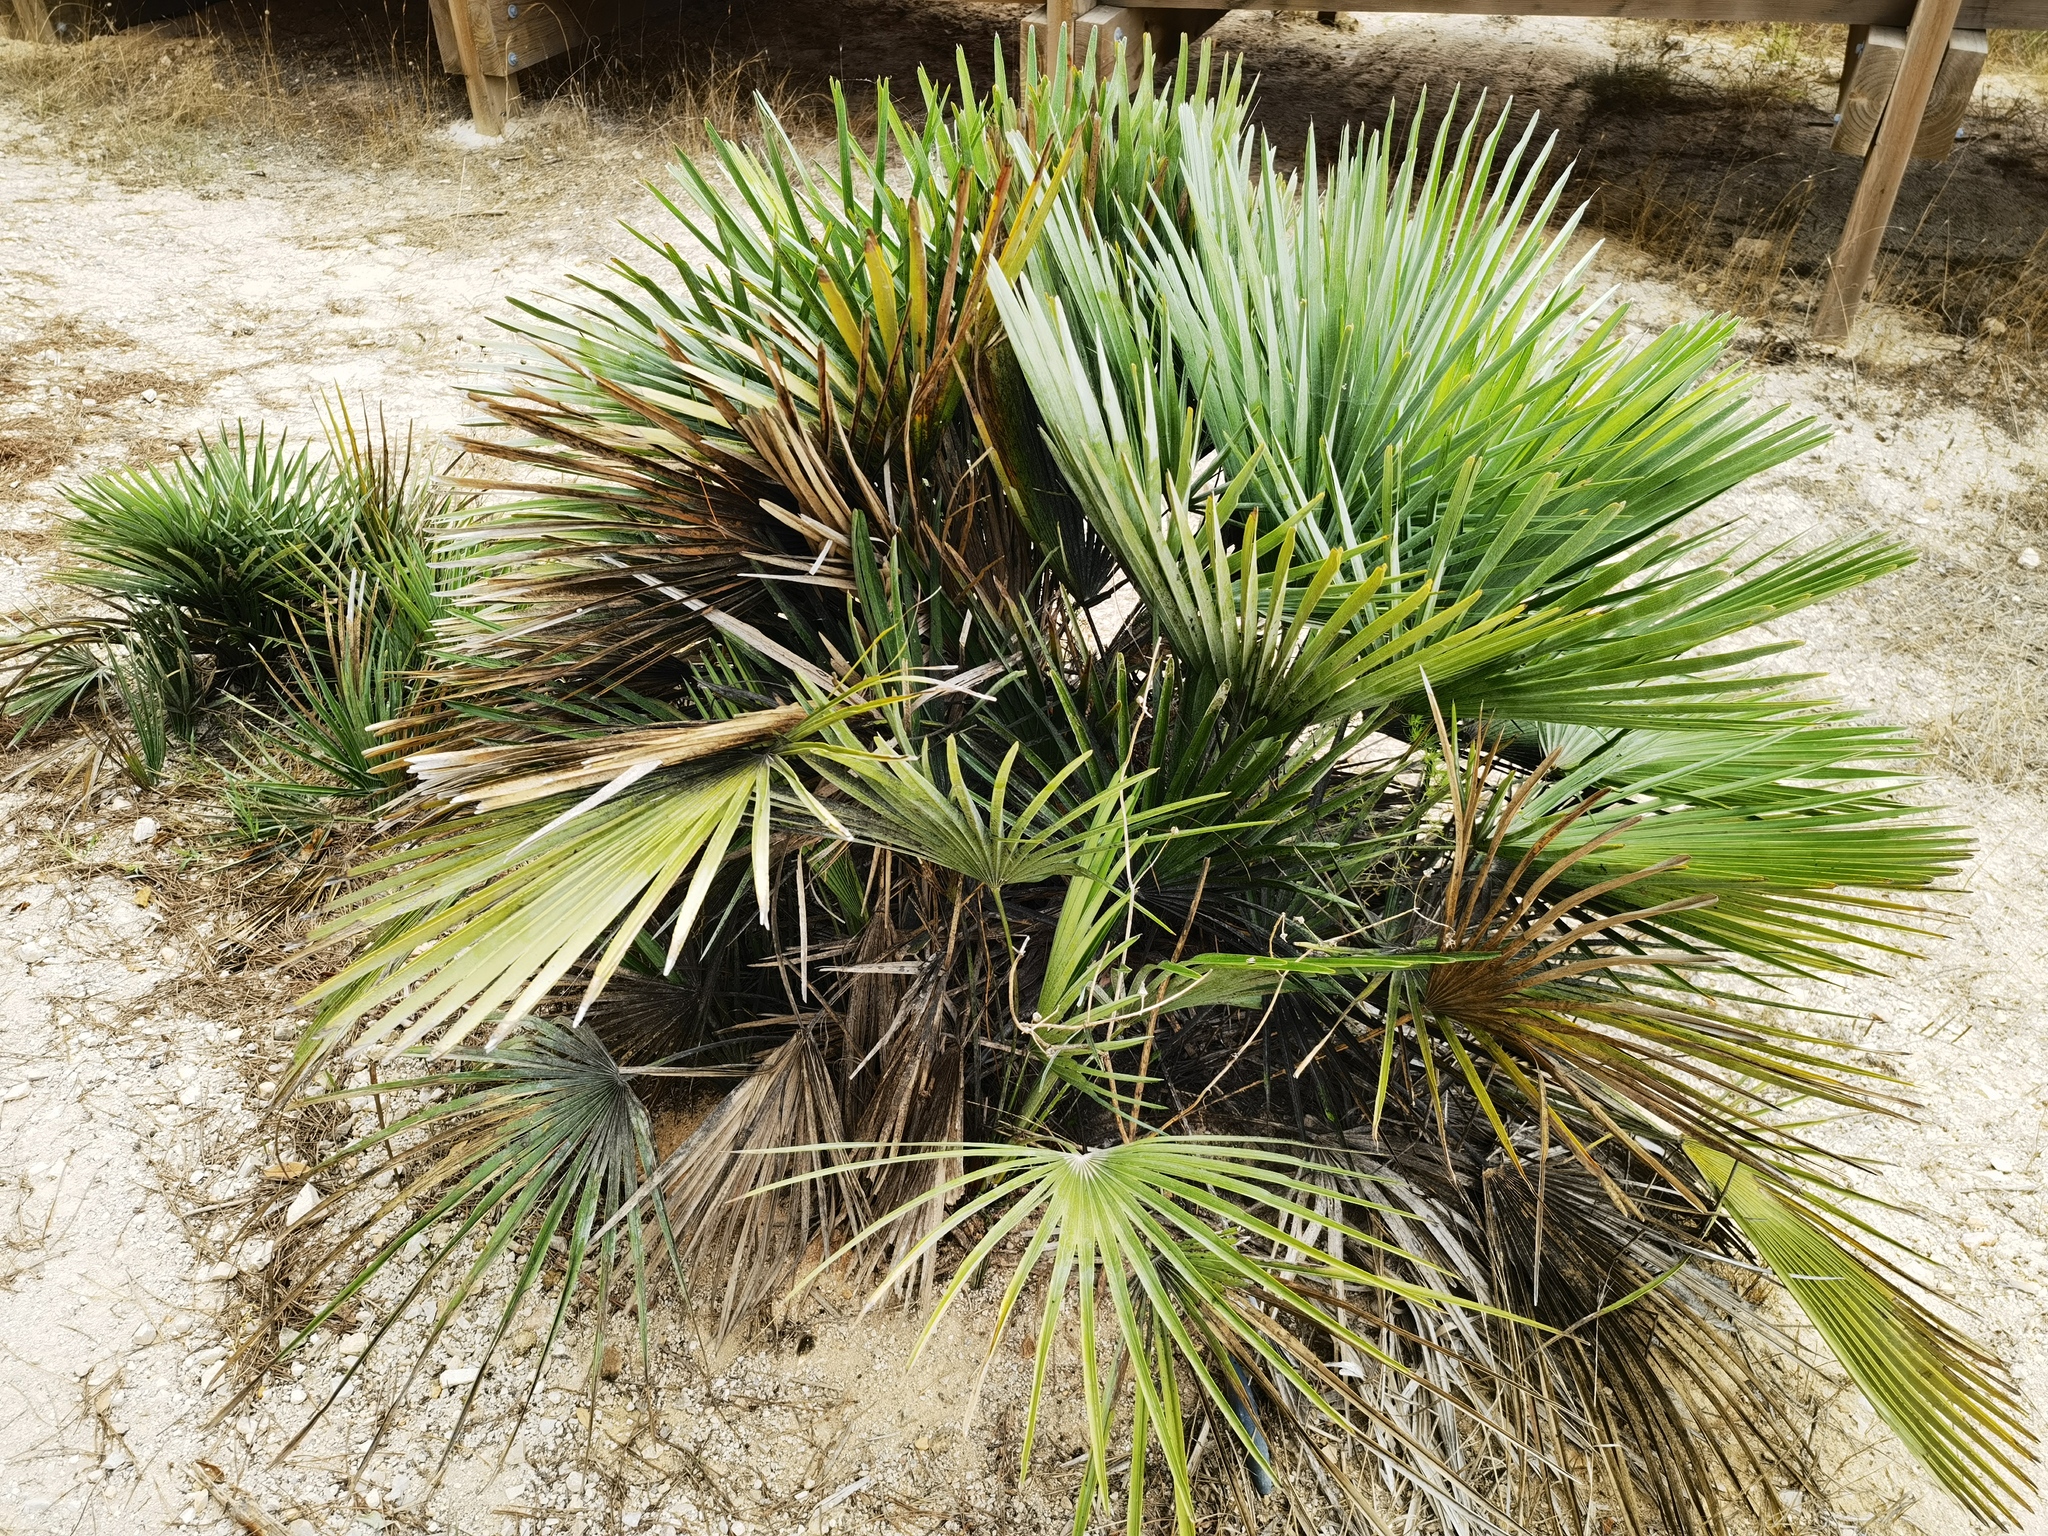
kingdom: Plantae
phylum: Tracheophyta
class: Liliopsida
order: Arecales
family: Arecaceae
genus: Chamaerops
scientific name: Chamaerops humilis
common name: Dwarf fan palm
